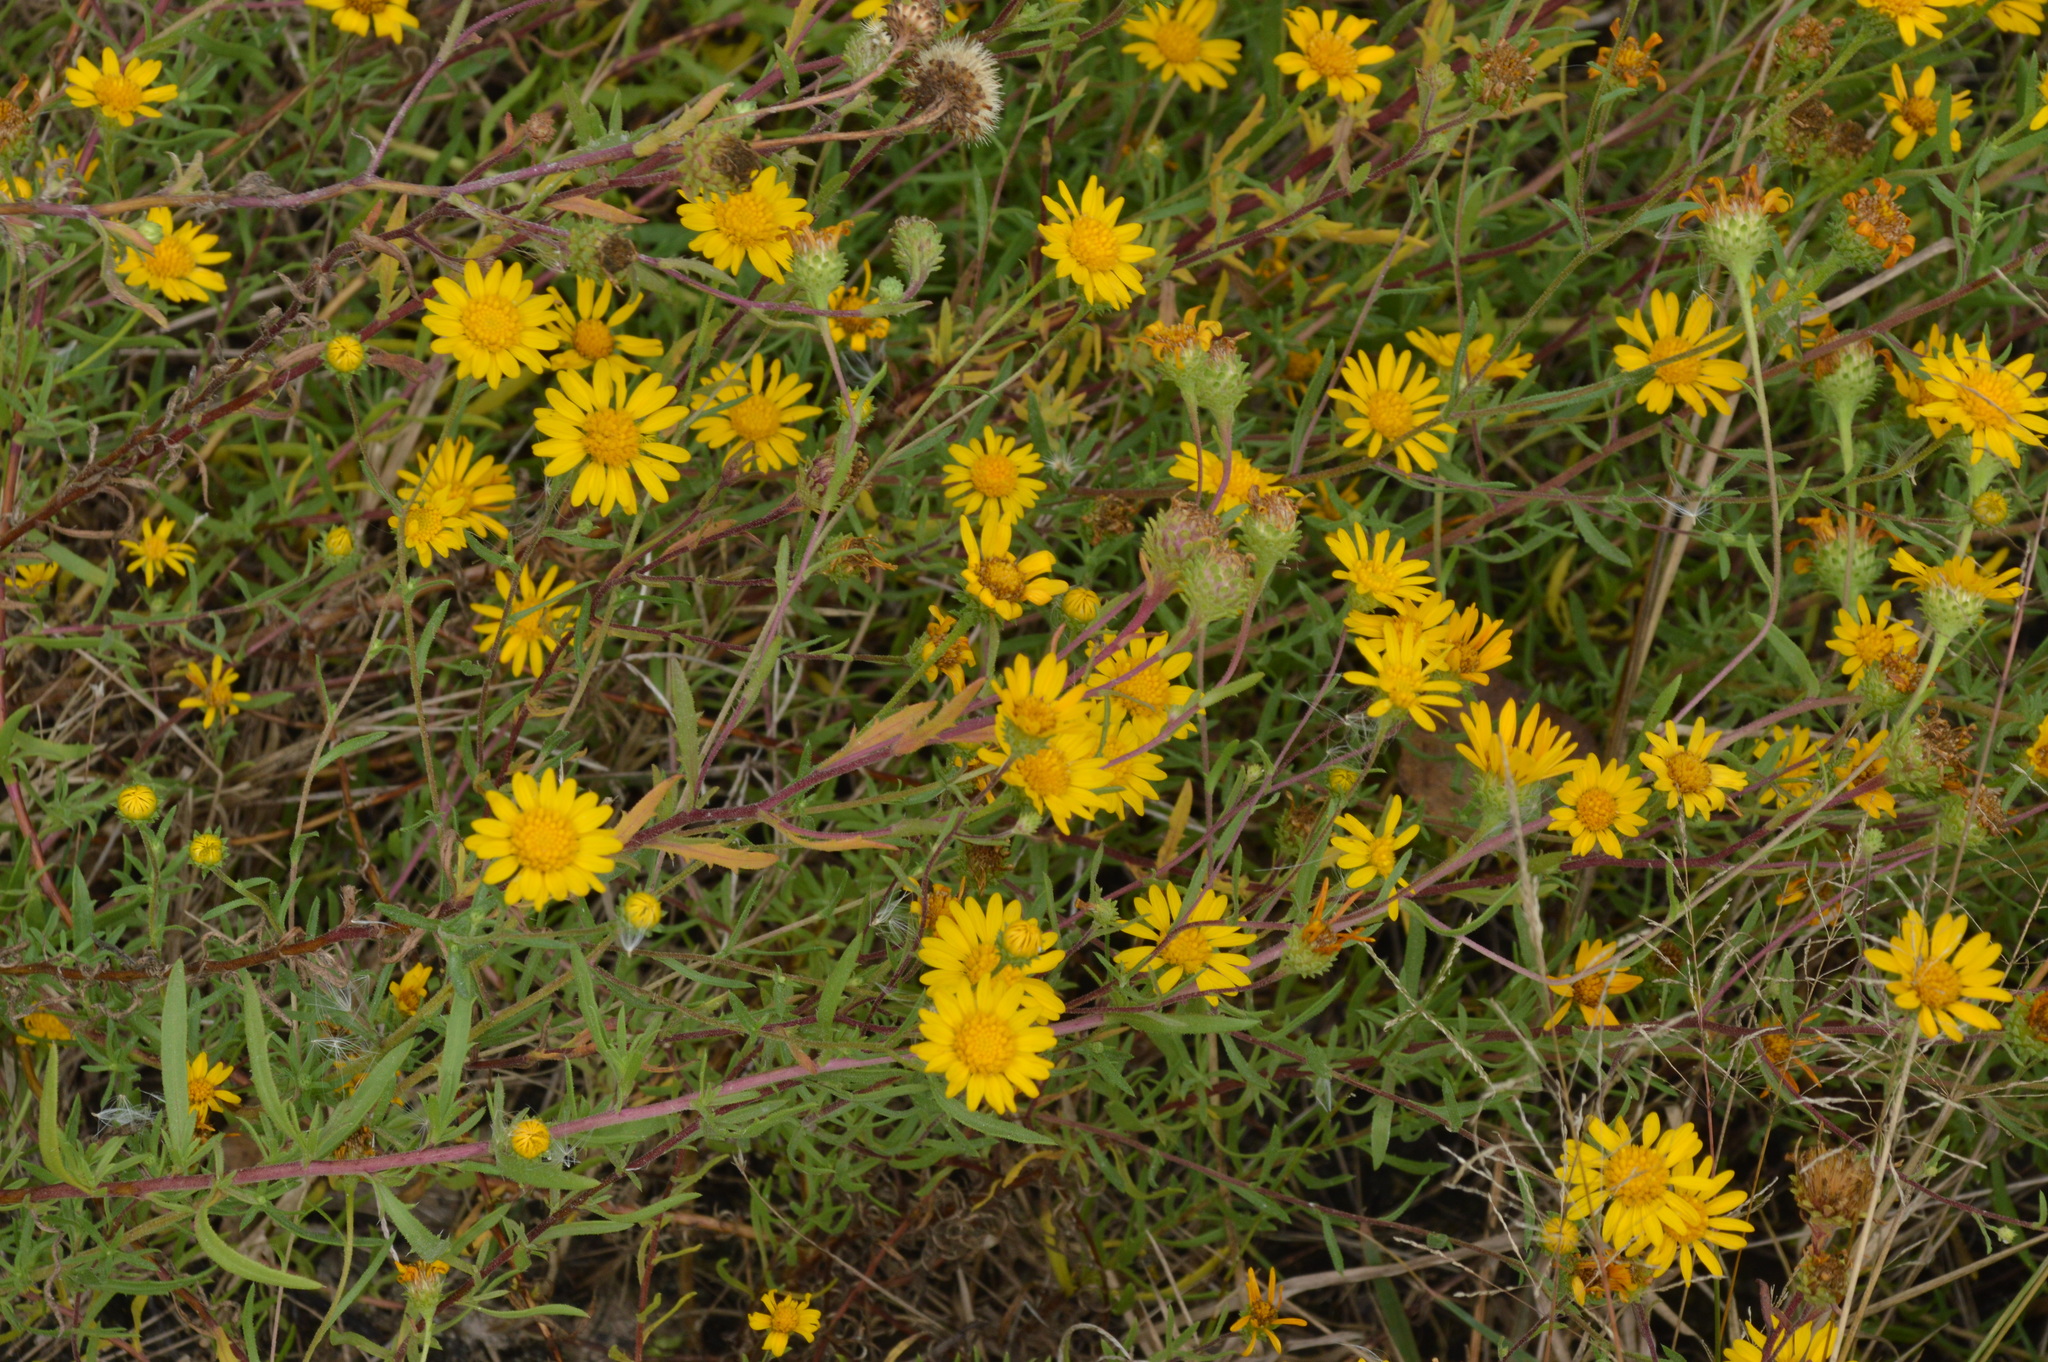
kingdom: Plantae
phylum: Tracheophyta
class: Magnoliopsida
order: Asterales
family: Asteraceae
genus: Rayjacksonia
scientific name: Rayjacksonia aurea
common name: Houston camphor daisy
